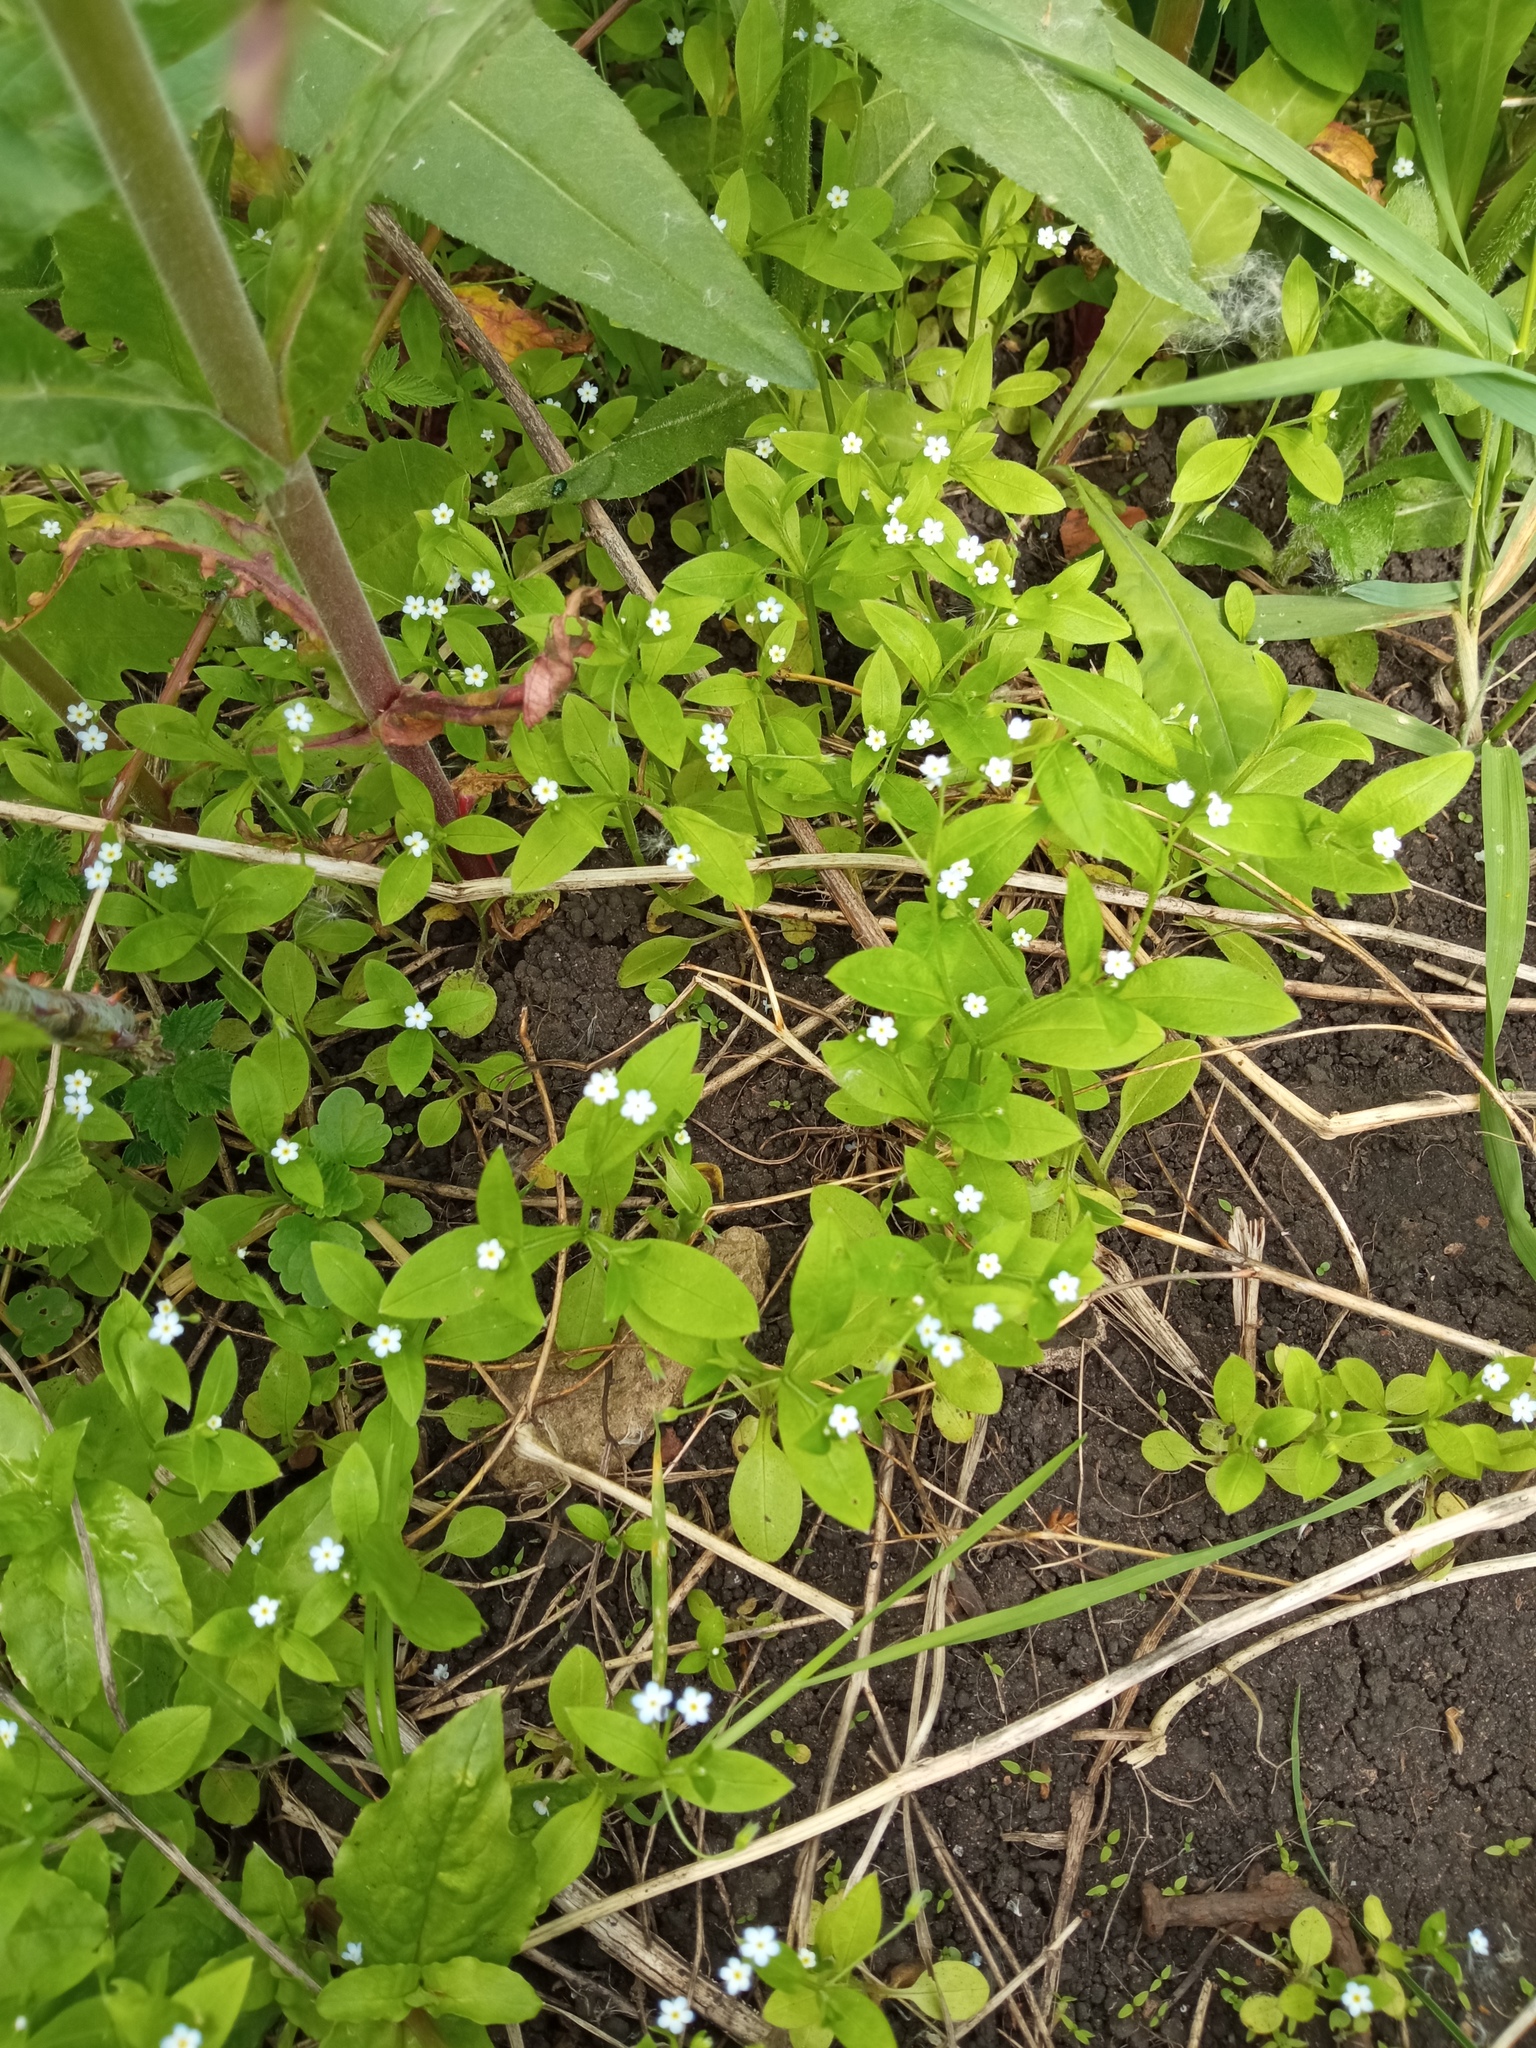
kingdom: Plantae
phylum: Tracheophyta
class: Magnoliopsida
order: Boraginales
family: Boraginaceae
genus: Myosotis
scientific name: Myosotis sparsiflora
